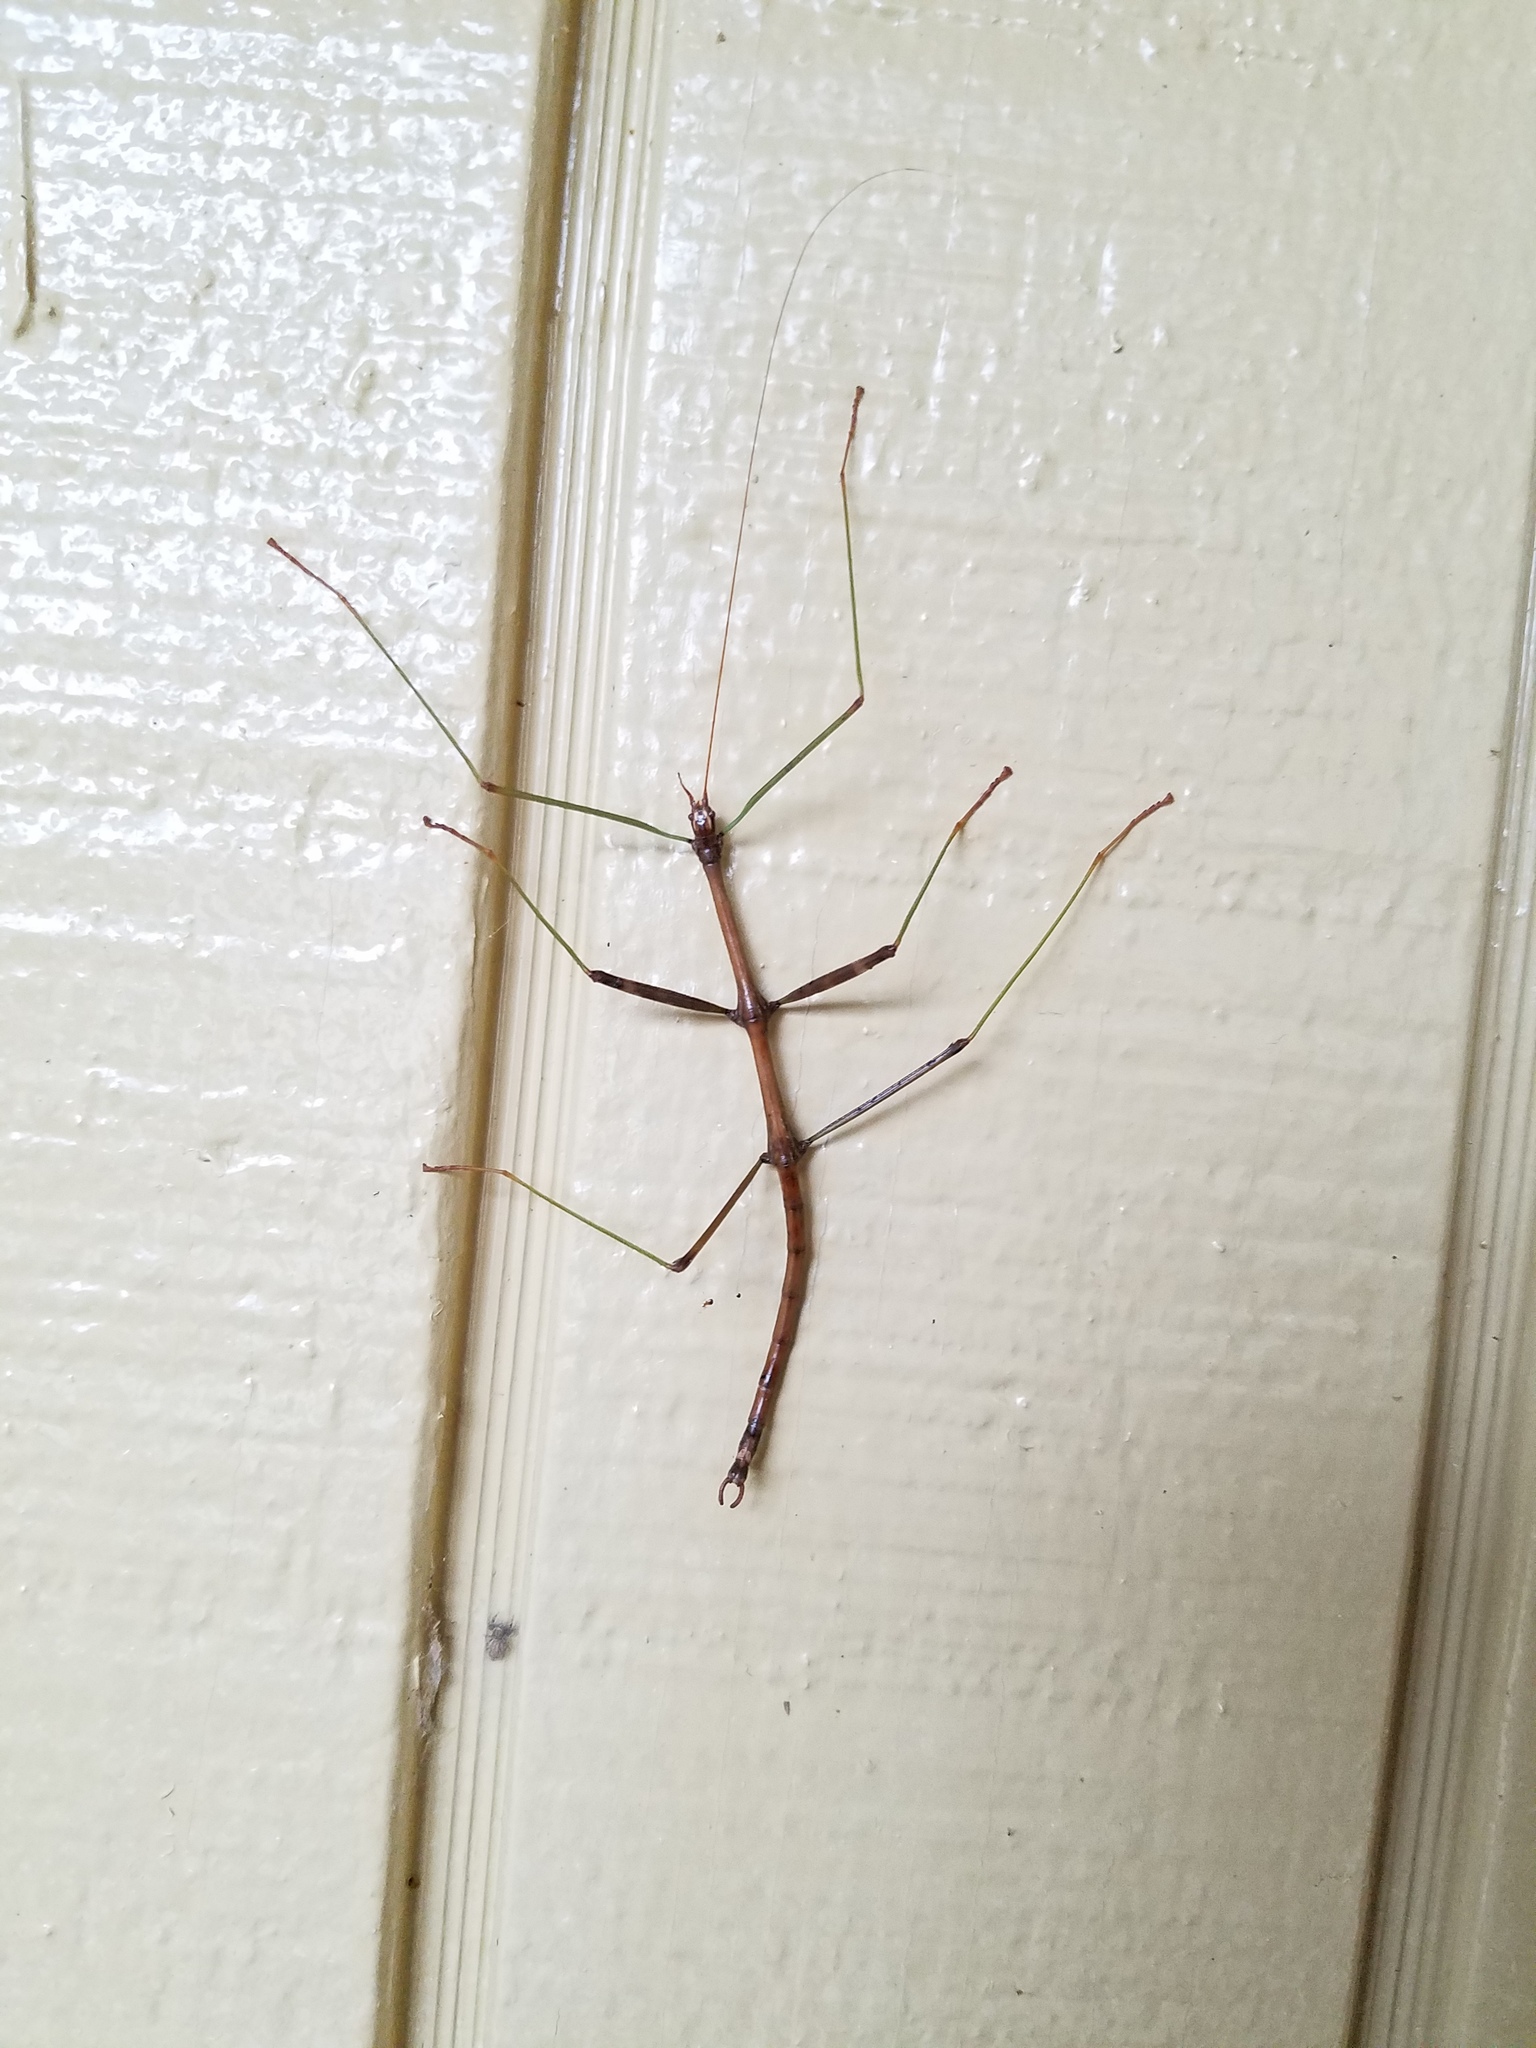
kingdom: Animalia
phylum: Arthropoda
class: Insecta
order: Phasmida
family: Diapheromeridae
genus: Diapheromera
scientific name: Diapheromera femorata
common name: Common american walkingstick
